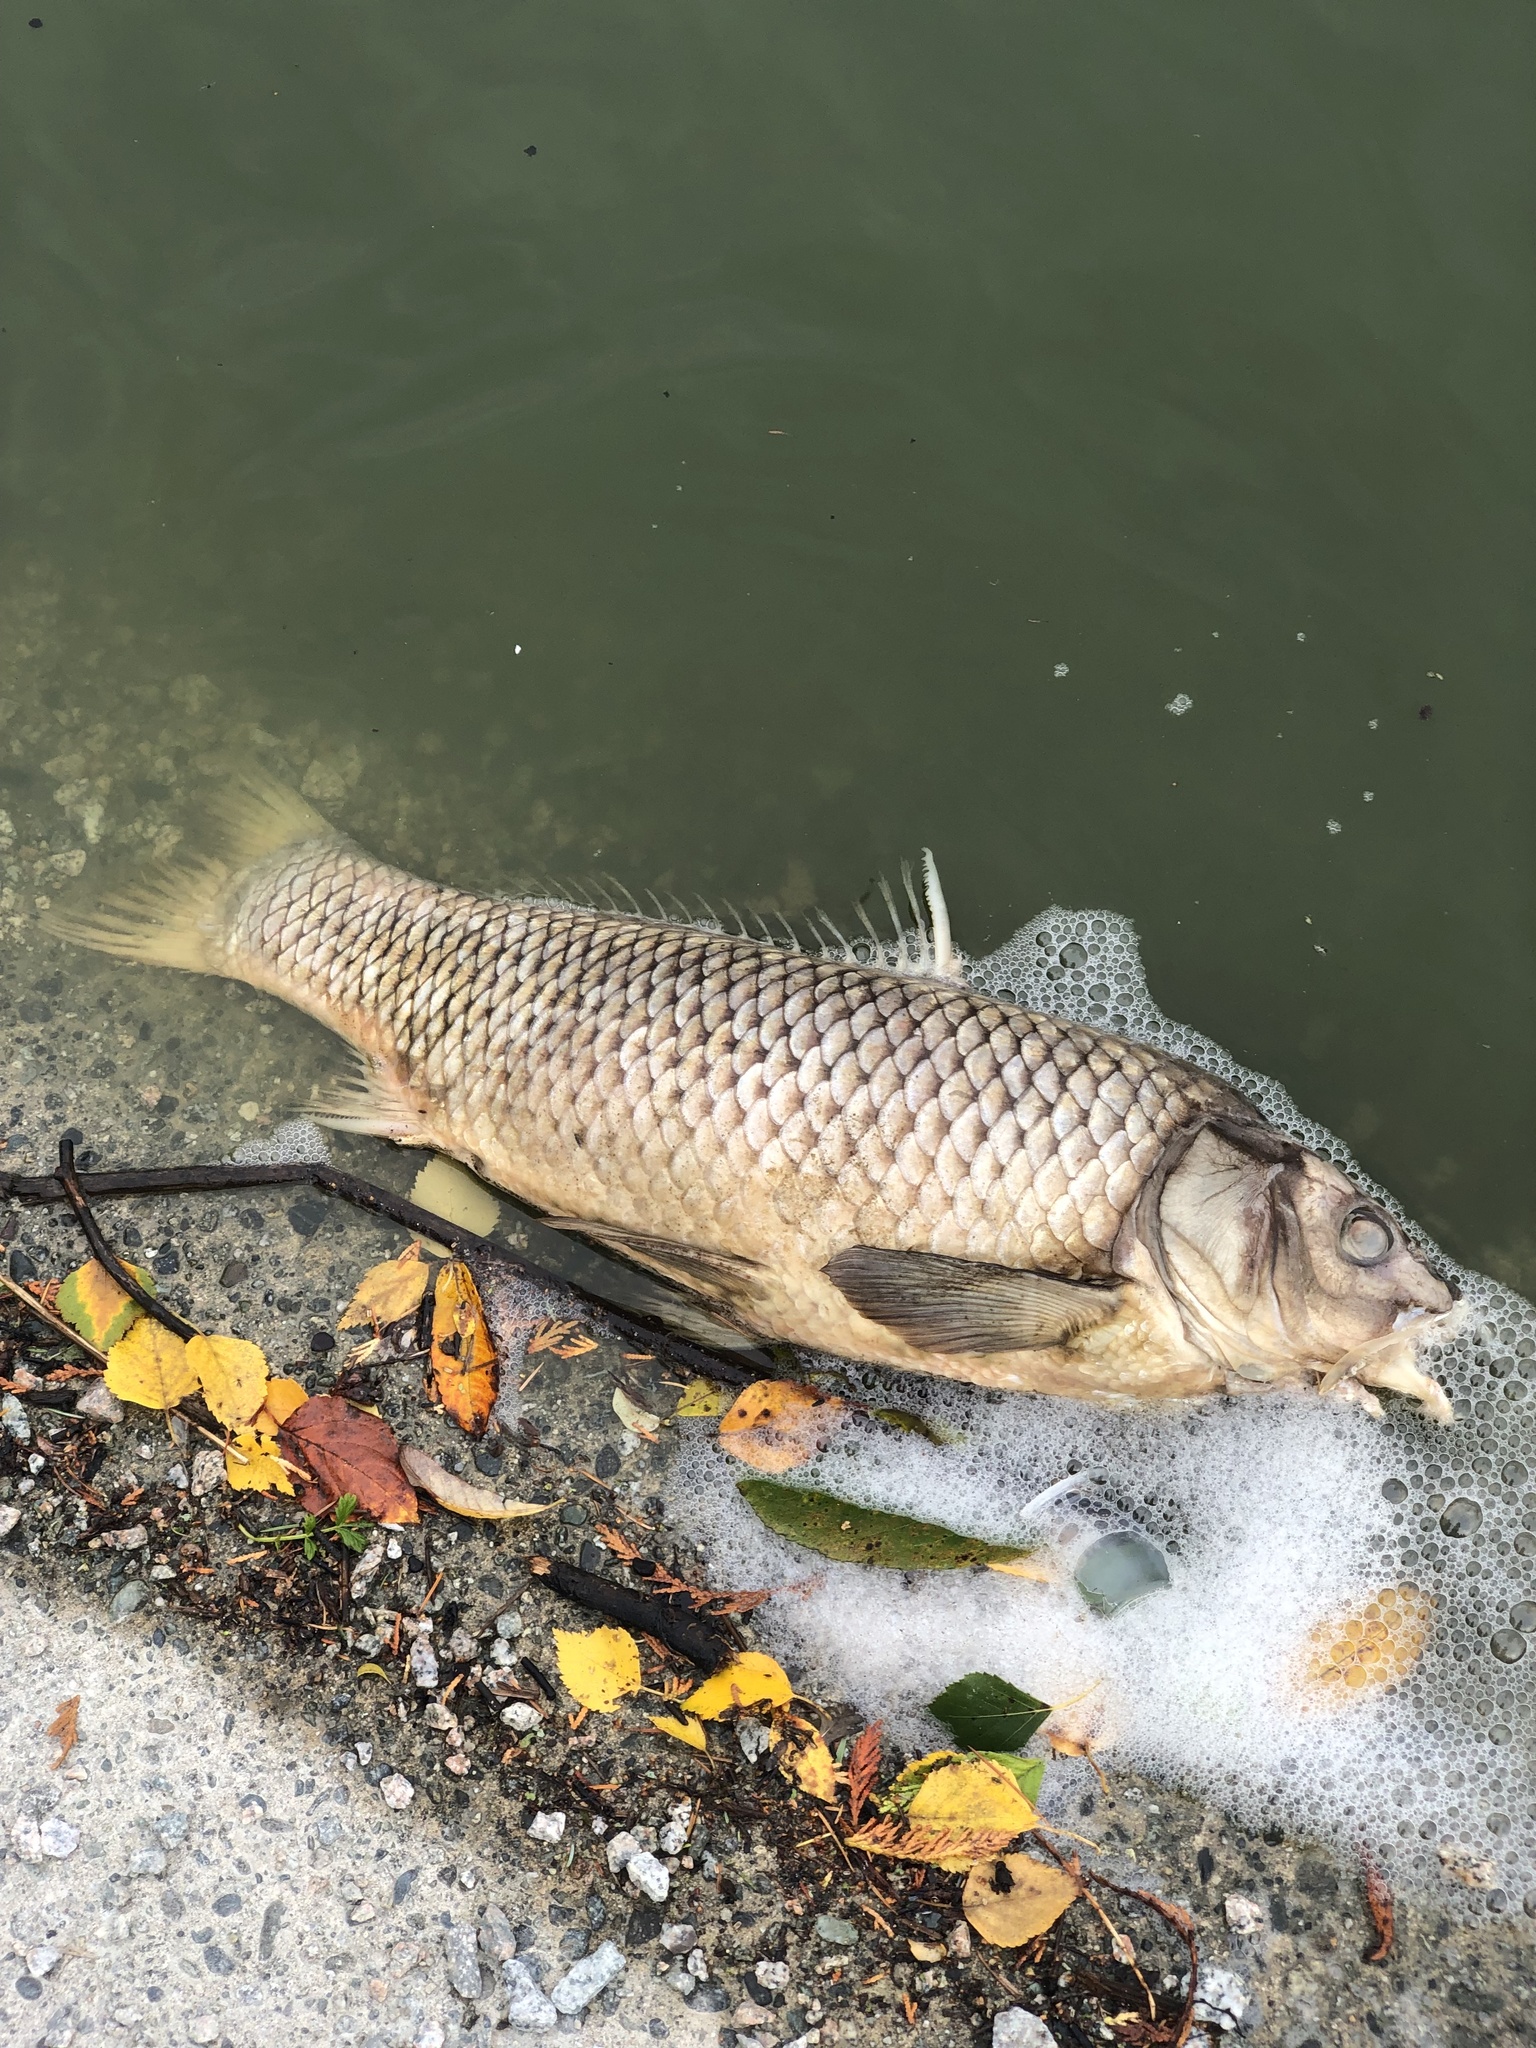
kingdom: Animalia
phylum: Chordata
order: Cypriniformes
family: Cyprinidae
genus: Cyprinus
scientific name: Cyprinus carpio
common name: Common carp
